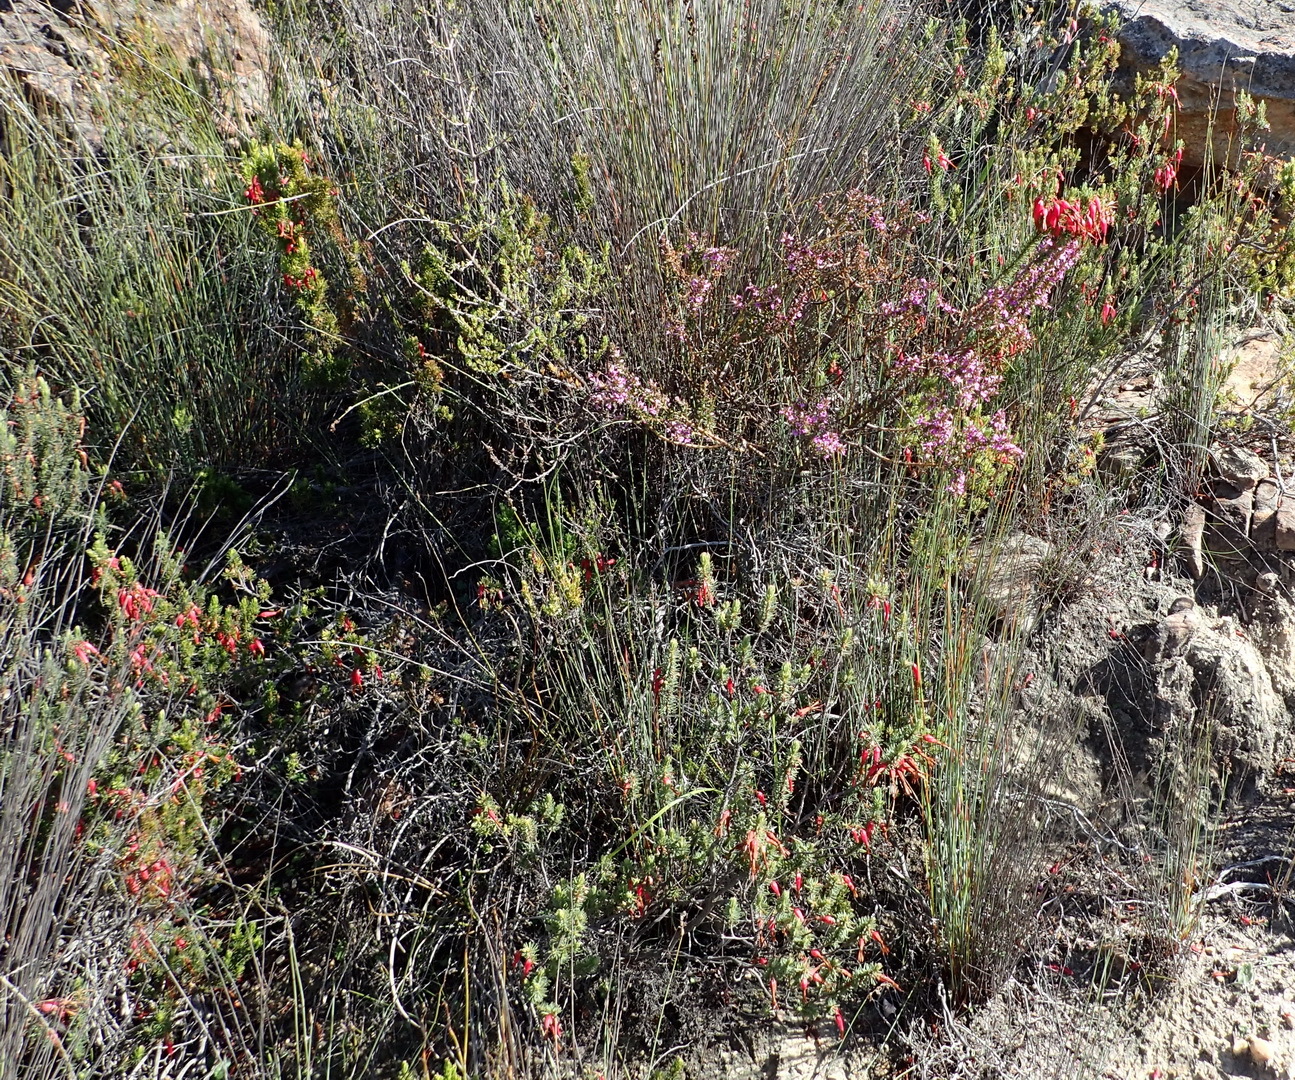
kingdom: Plantae
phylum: Tracheophyta
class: Magnoliopsida
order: Ericales
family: Ericaceae
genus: Erica
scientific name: Erica plukenetii
